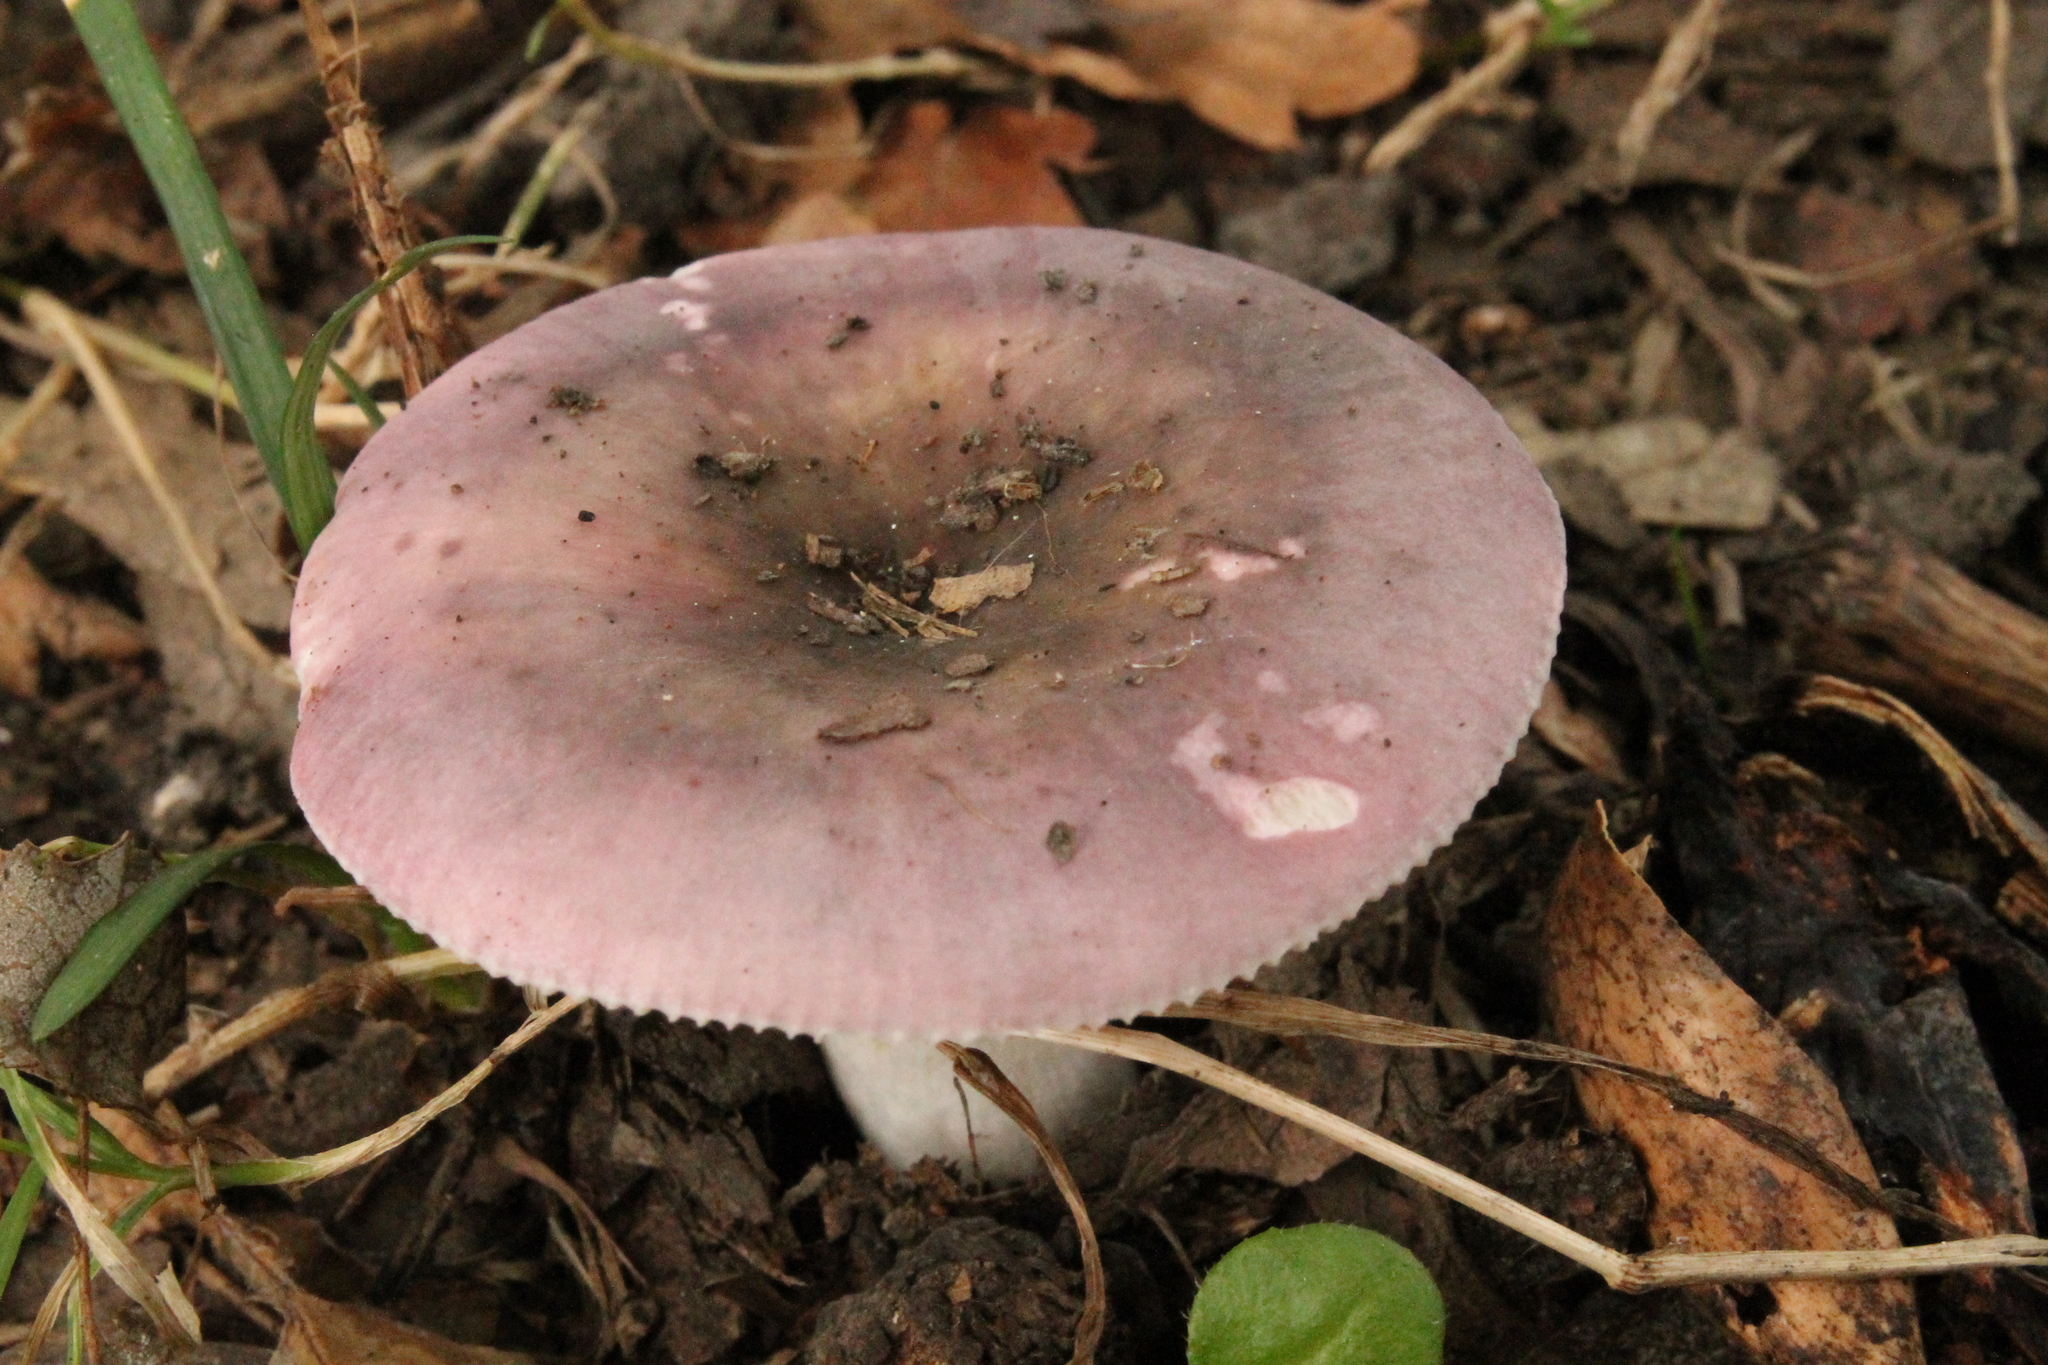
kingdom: Fungi
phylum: Basidiomycota
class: Agaricomycetes
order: Russulales
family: Russulaceae
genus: Russula
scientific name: Russula grisea
